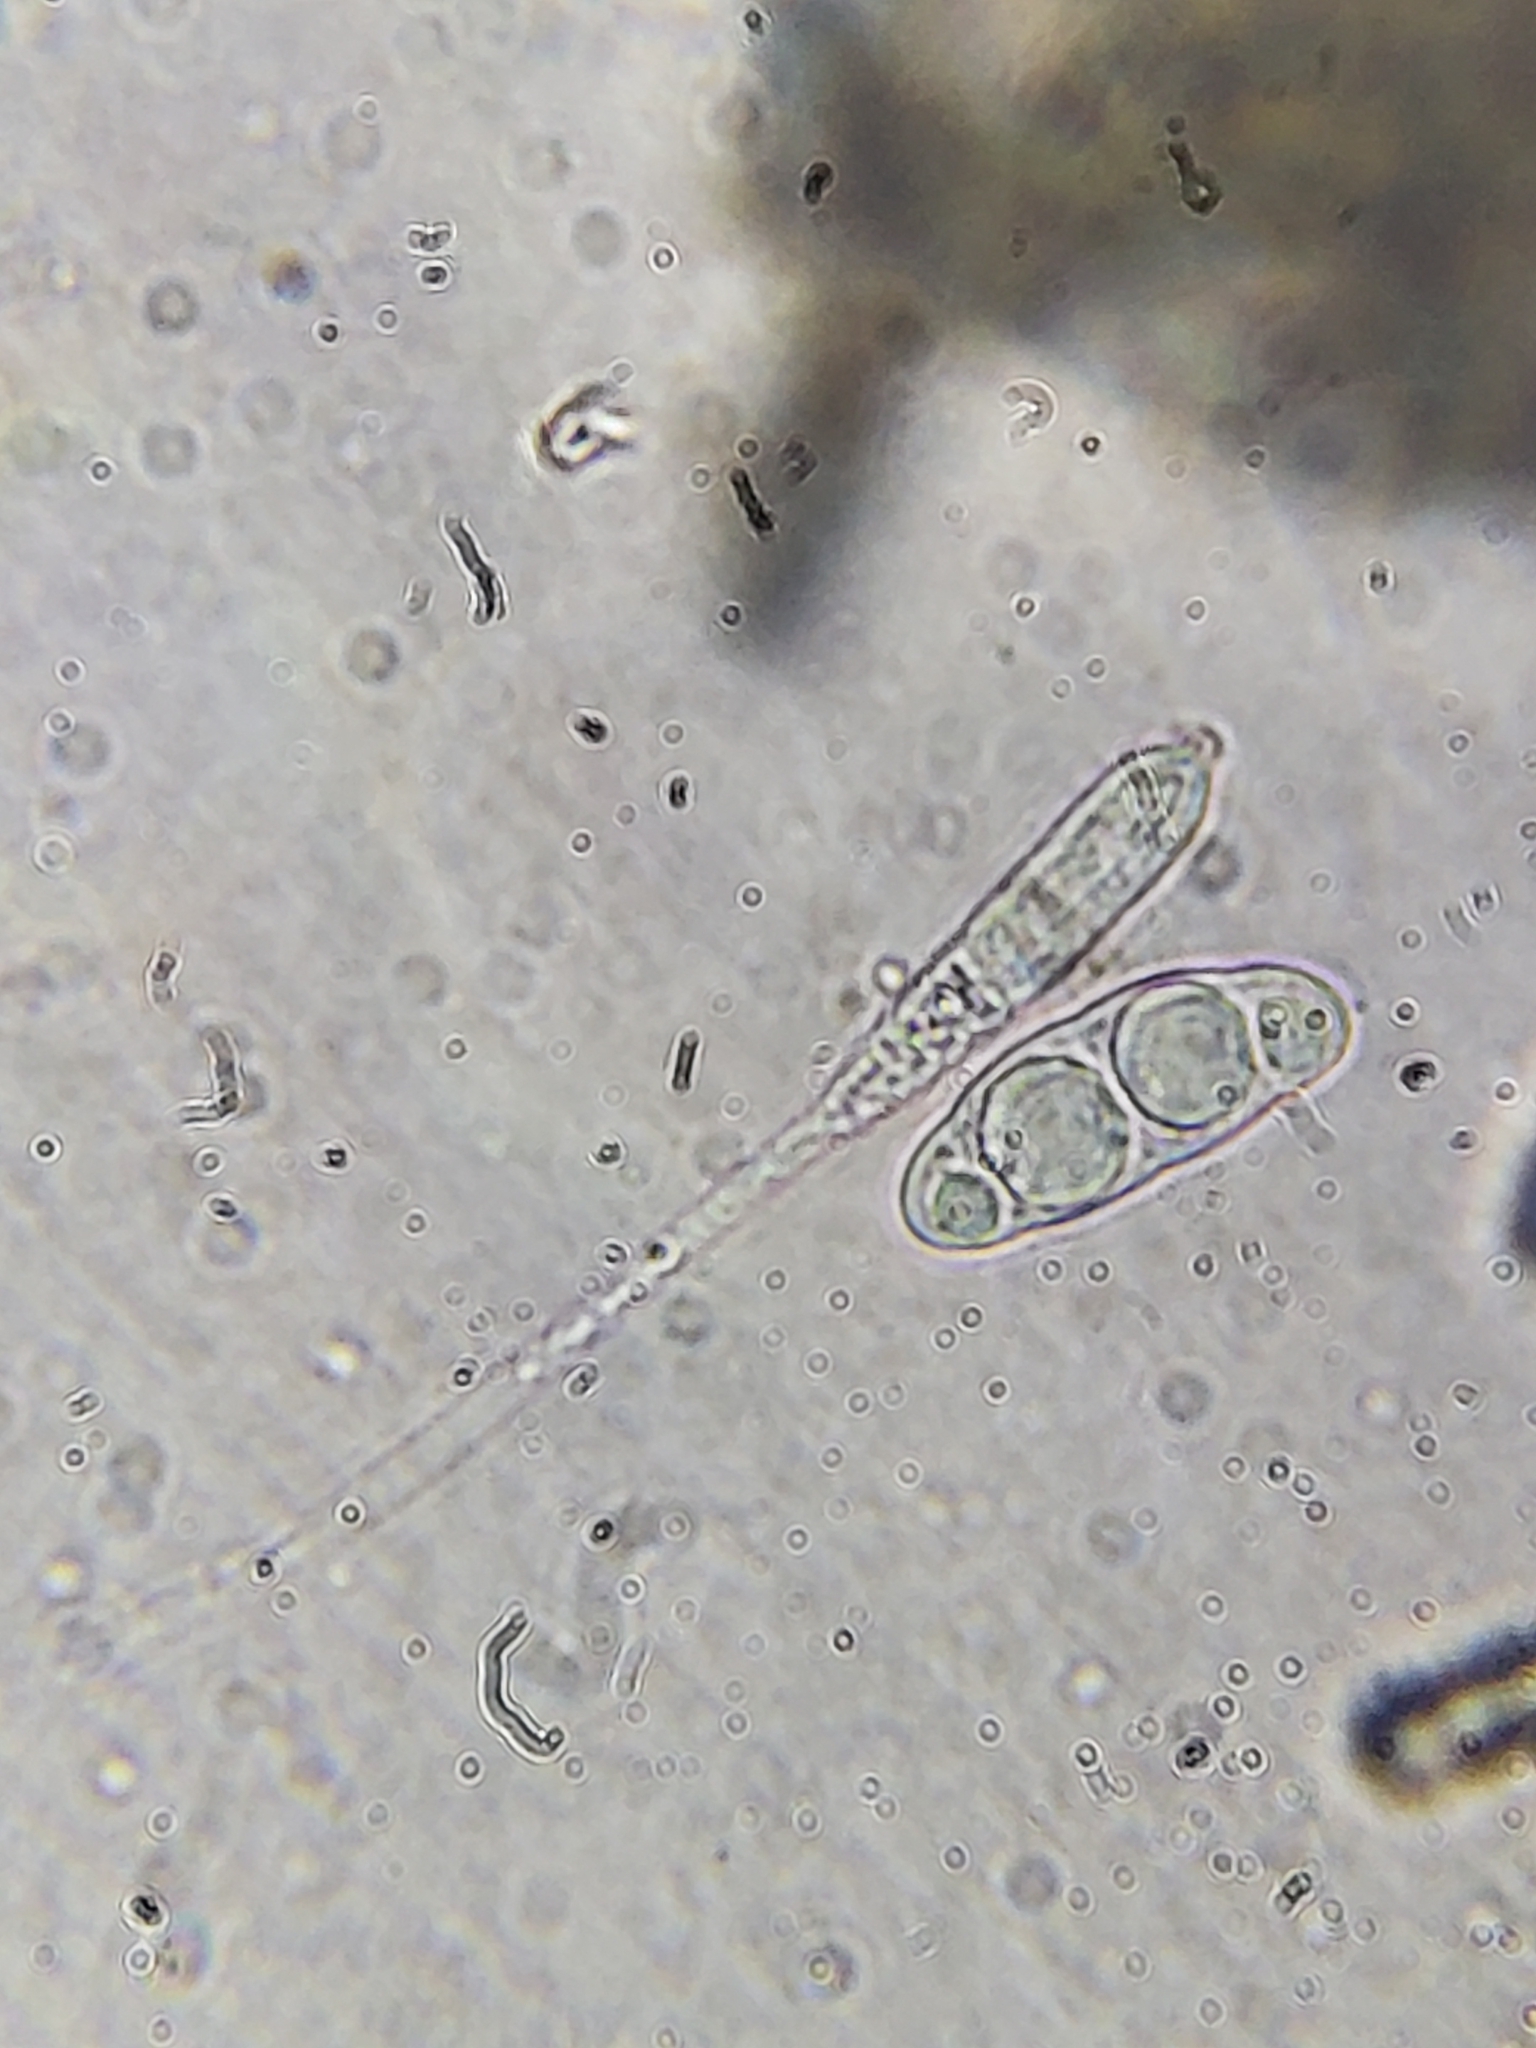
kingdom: Fungi
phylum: Ascomycota
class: Sordariomycetes
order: Pleurotheciales
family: Pleurotheciaceae
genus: Pleurothecium
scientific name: Pleurothecium recurvatum
